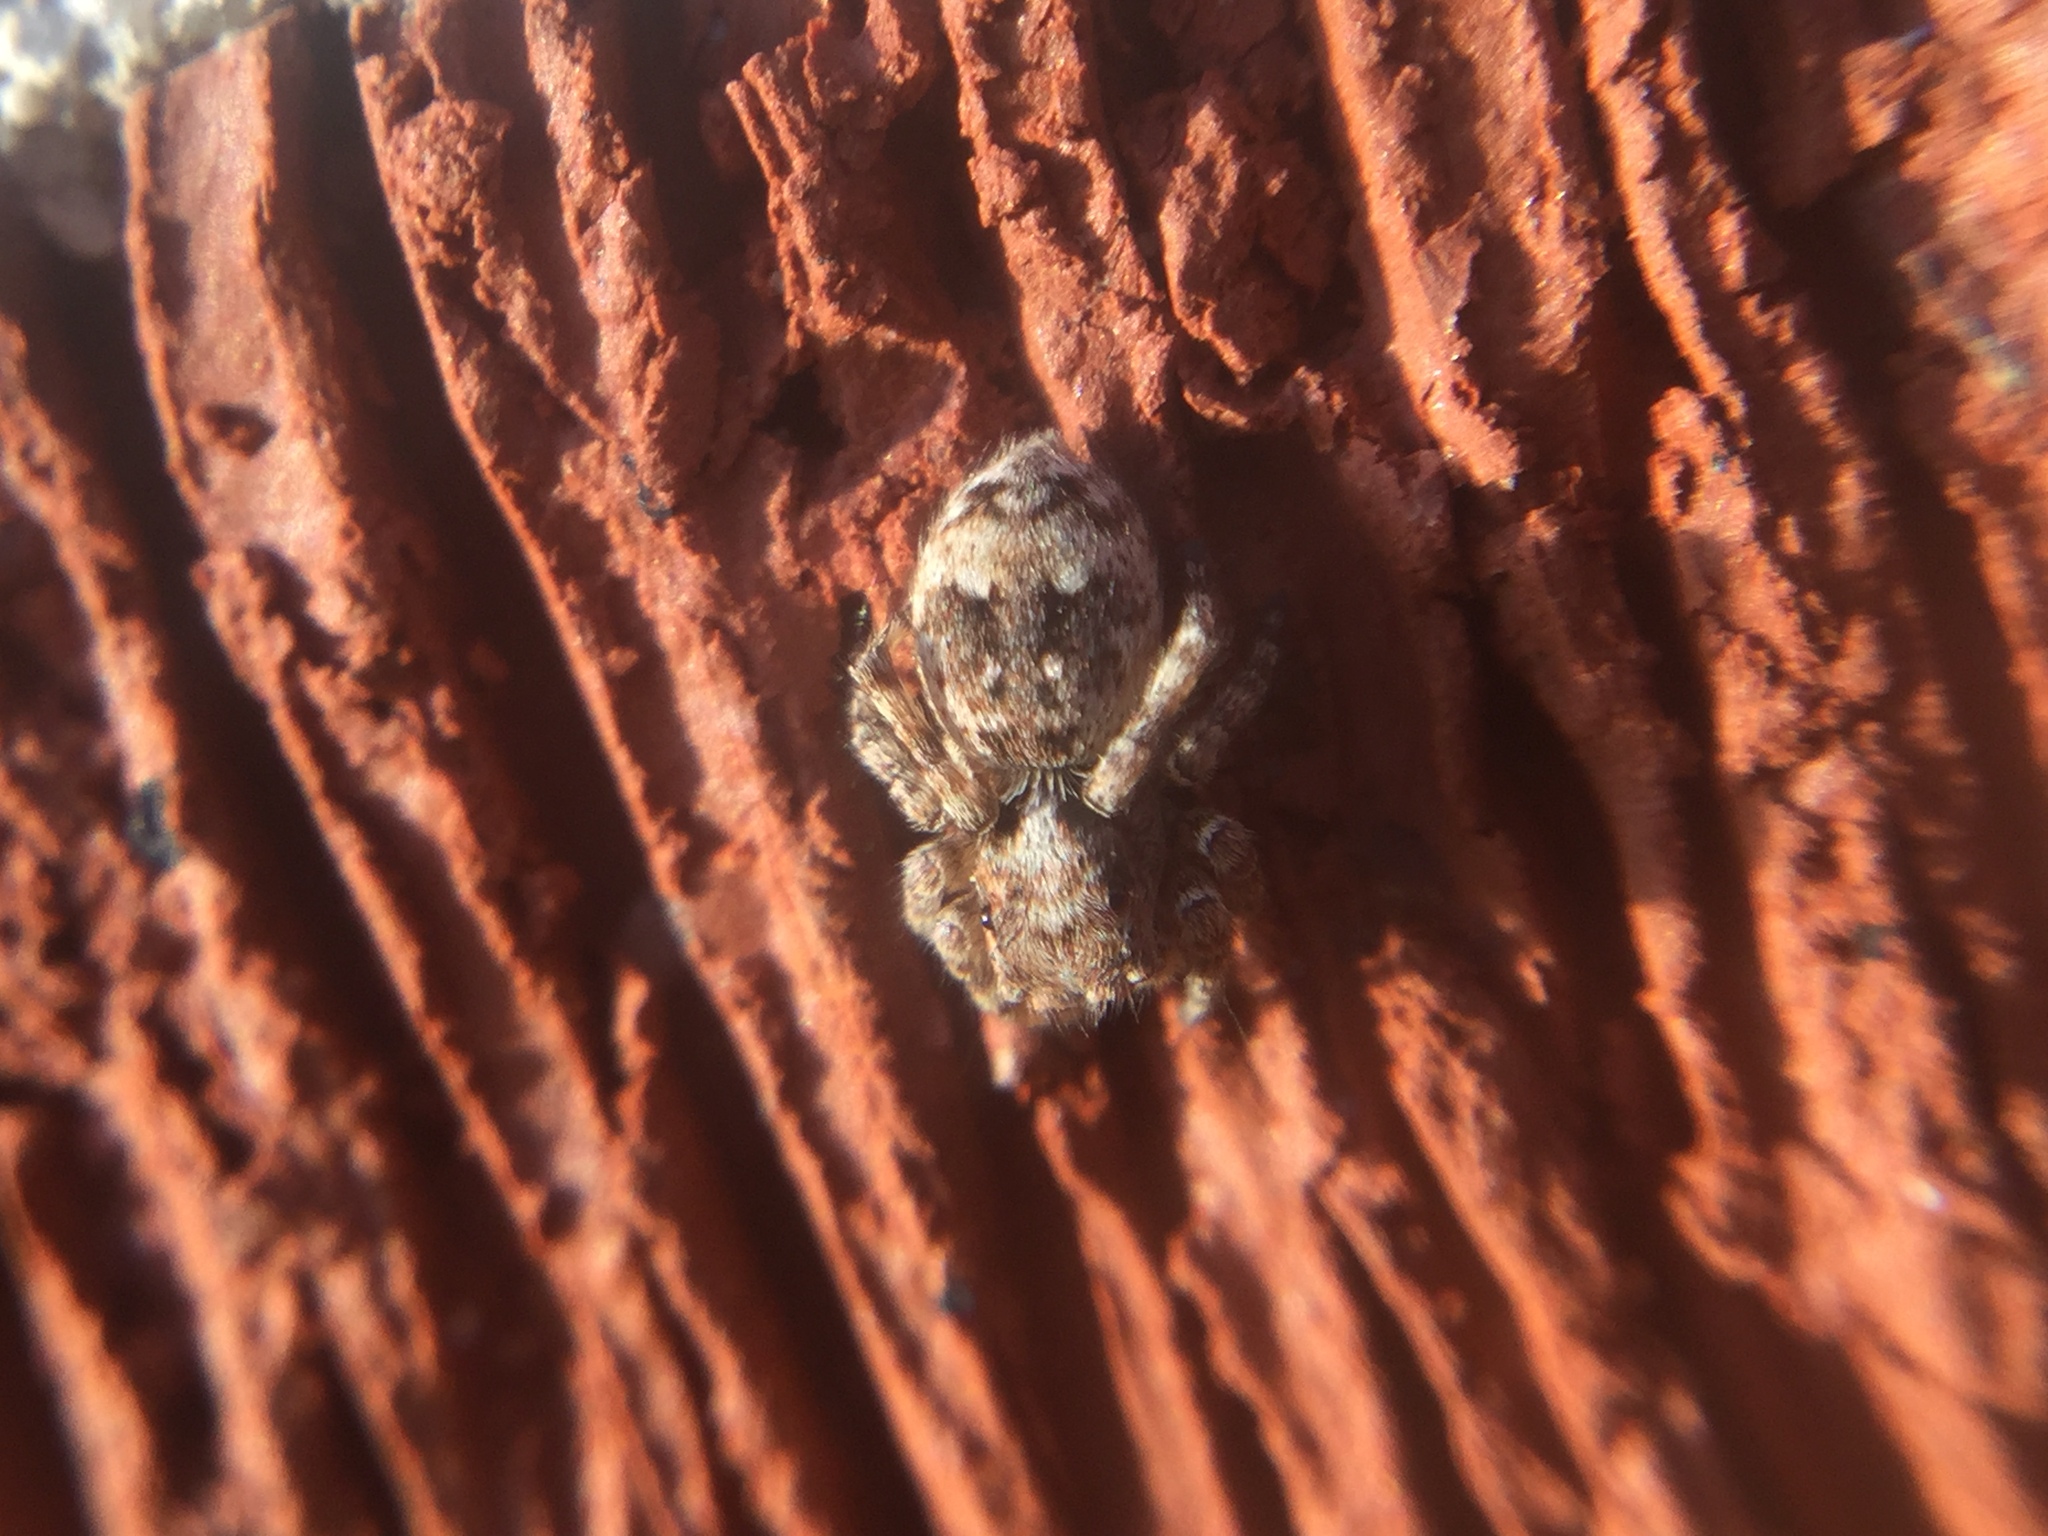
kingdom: Animalia
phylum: Arthropoda
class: Arachnida
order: Araneae
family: Salticidae
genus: Attulus
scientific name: Attulus fasciger
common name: Asiatic wall jumping spider
